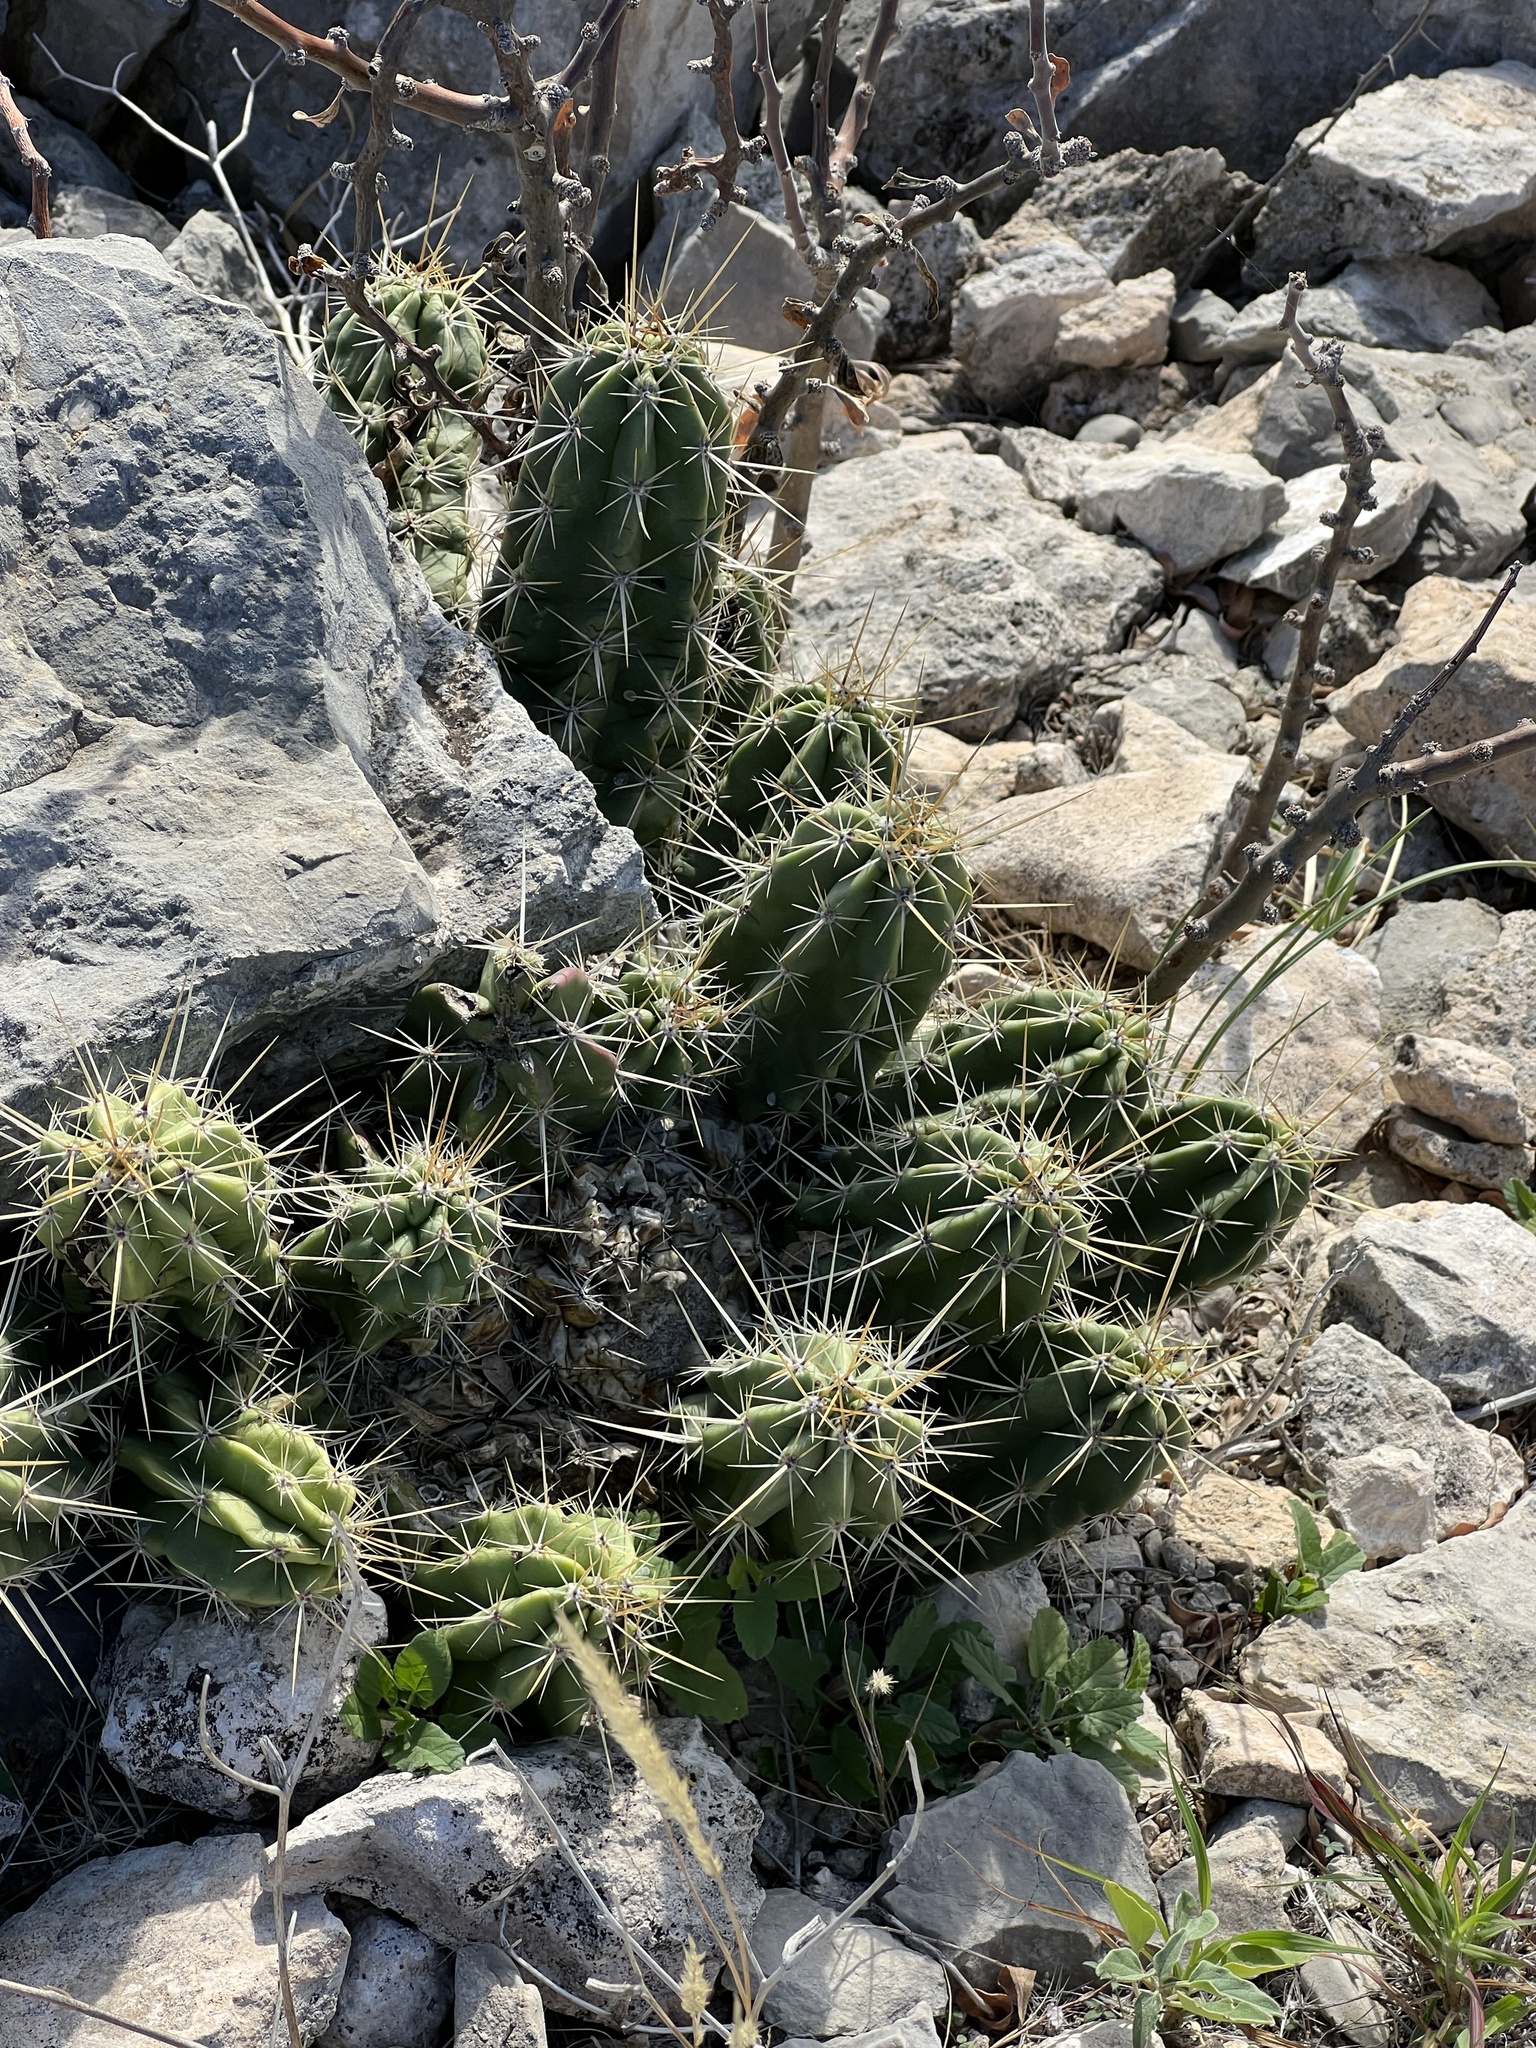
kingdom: Plantae
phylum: Tracheophyta
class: Magnoliopsida
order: Caryophyllales
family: Cactaceae
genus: Echinocereus
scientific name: Echinocereus enneacanthus
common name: Pitaya
